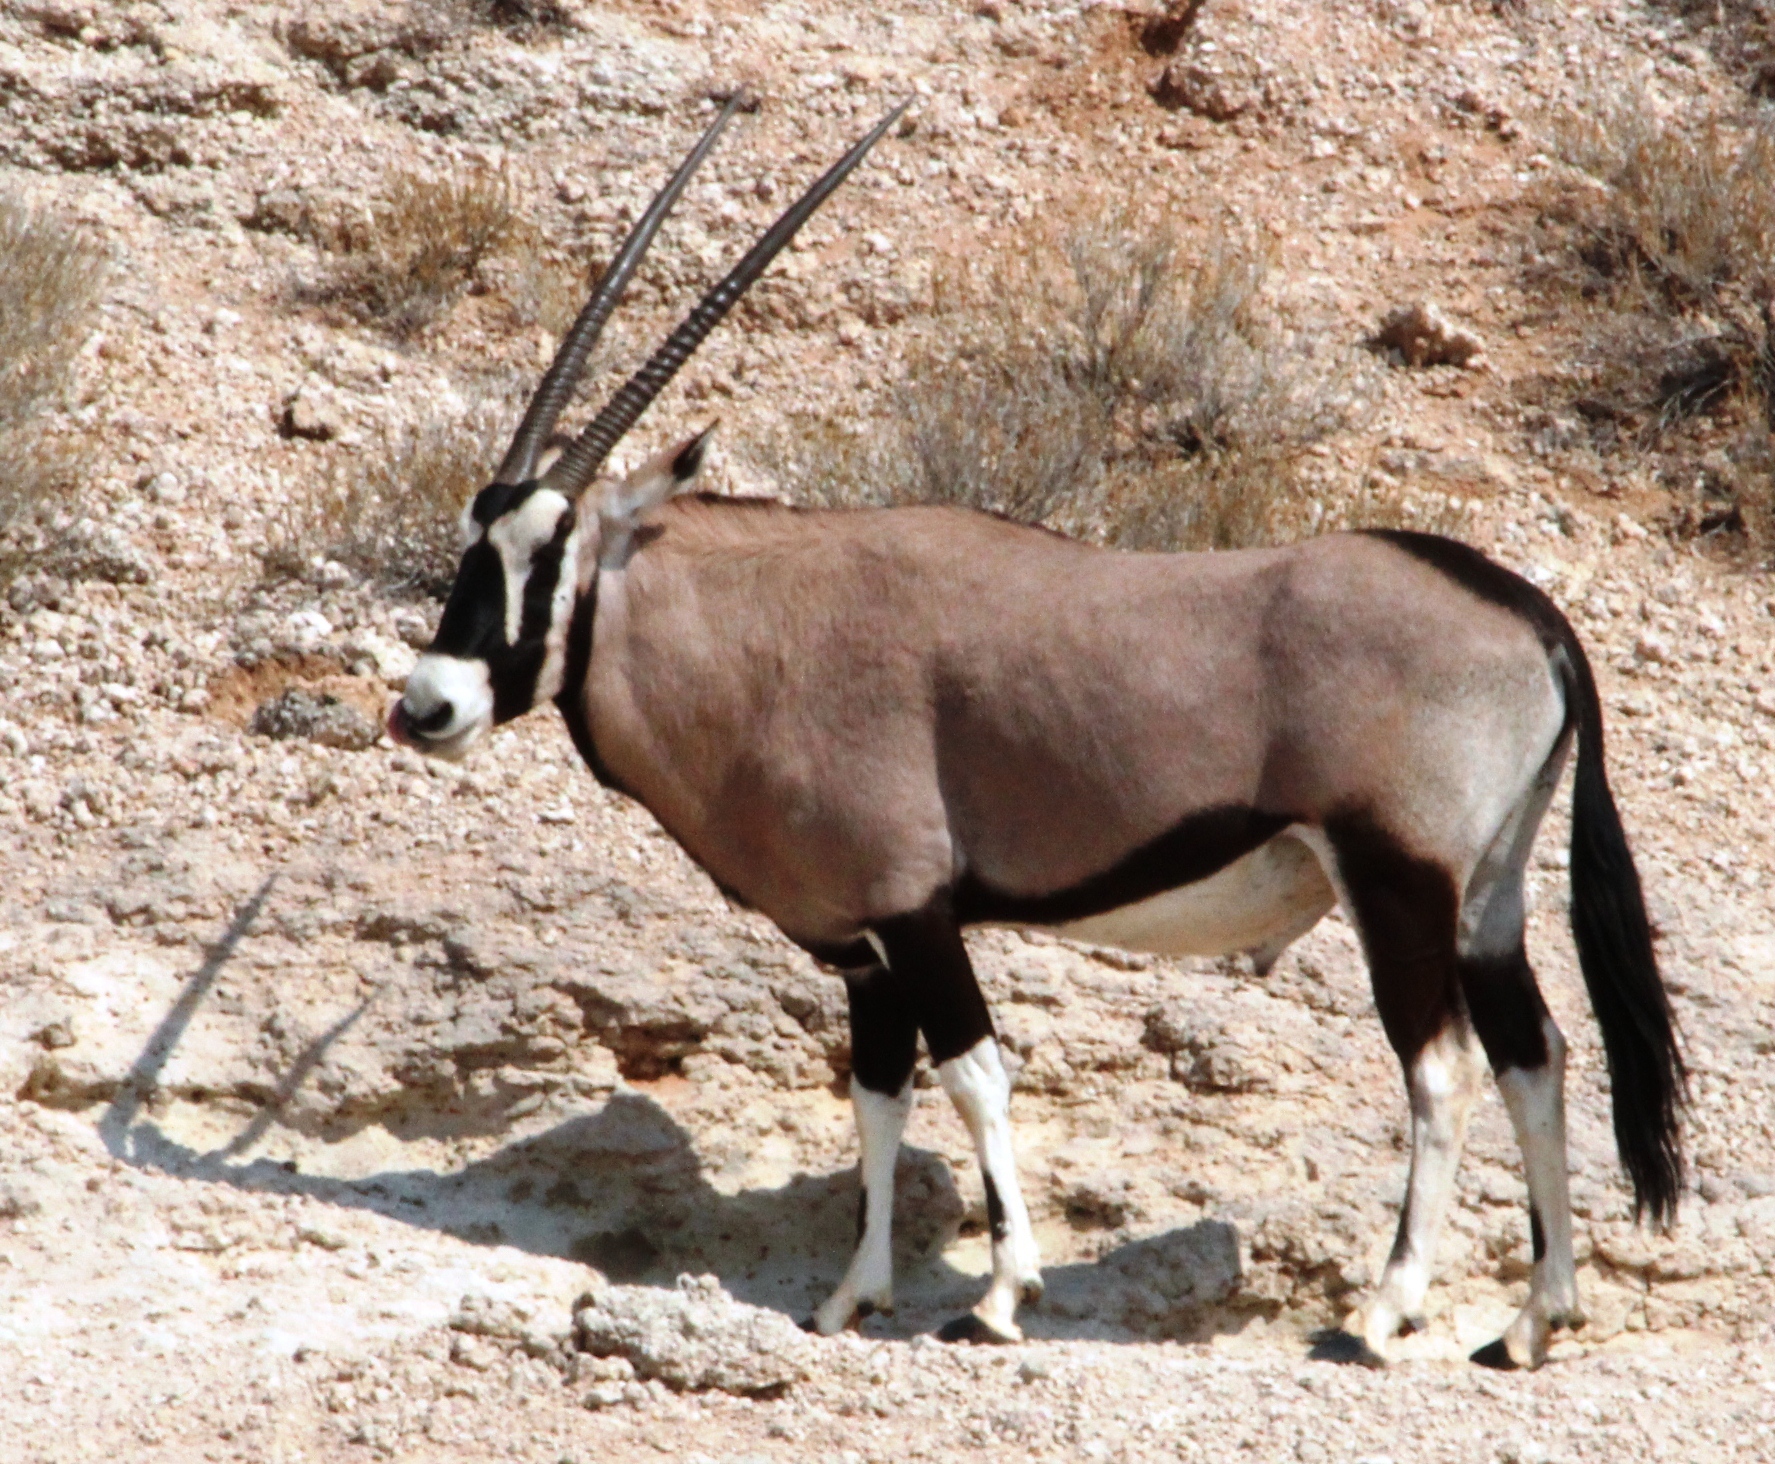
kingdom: Animalia
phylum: Chordata
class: Mammalia
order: Artiodactyla
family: Bovidae
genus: Oryx
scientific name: Oryx gazella
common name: Gemsbok
